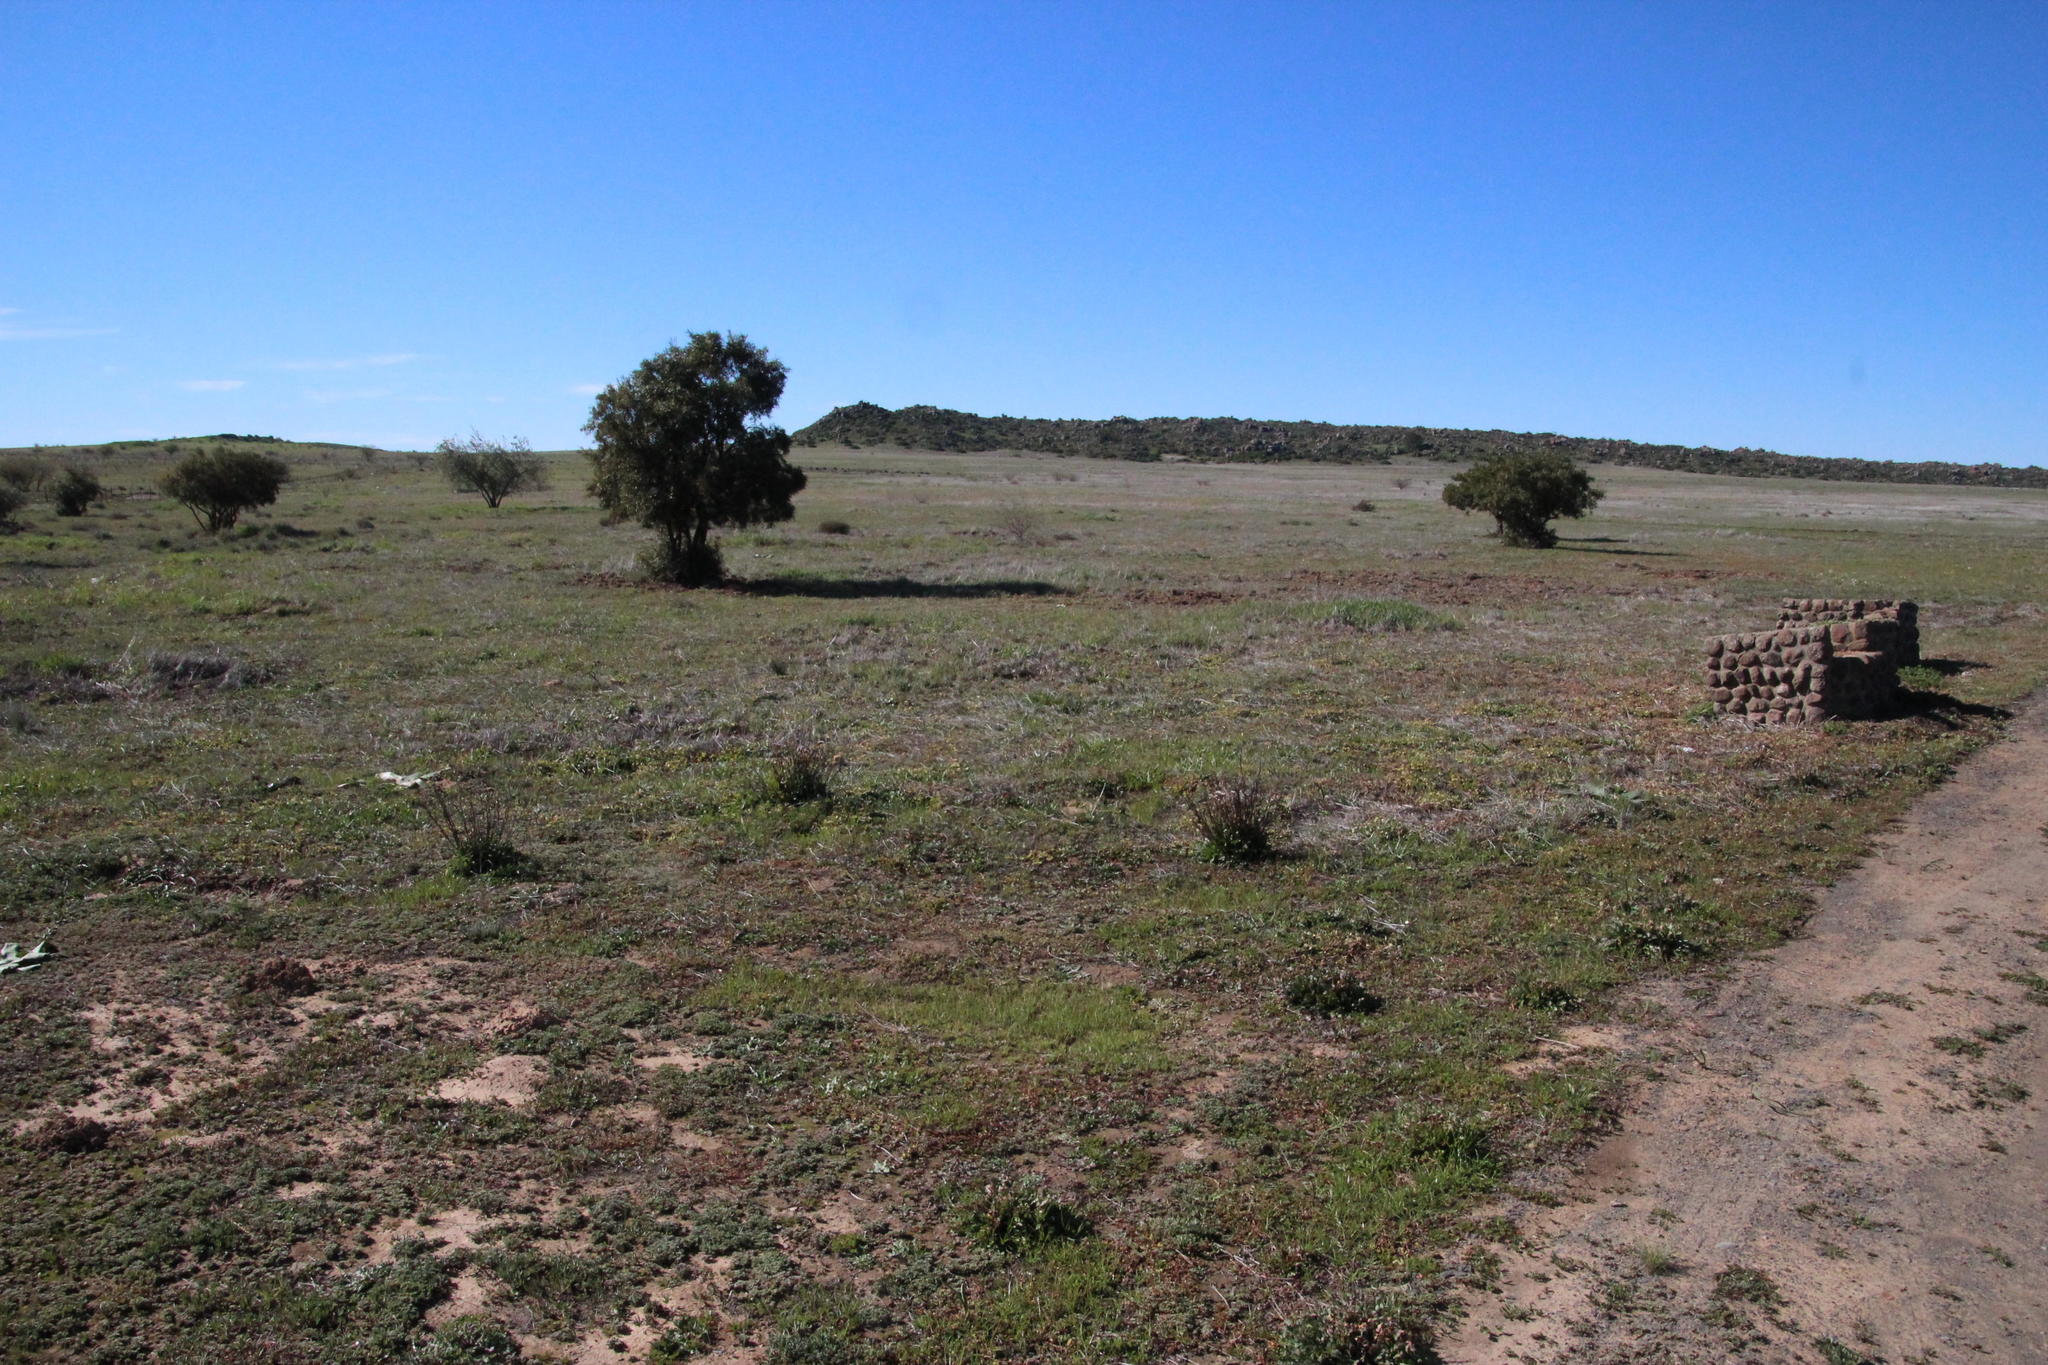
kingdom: Plantae
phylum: Tracheophyta
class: Magnoliopsida
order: Caryophyllales
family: Plumbaginaceae
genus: Limonium
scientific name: Limonium sinuatum
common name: Statice
